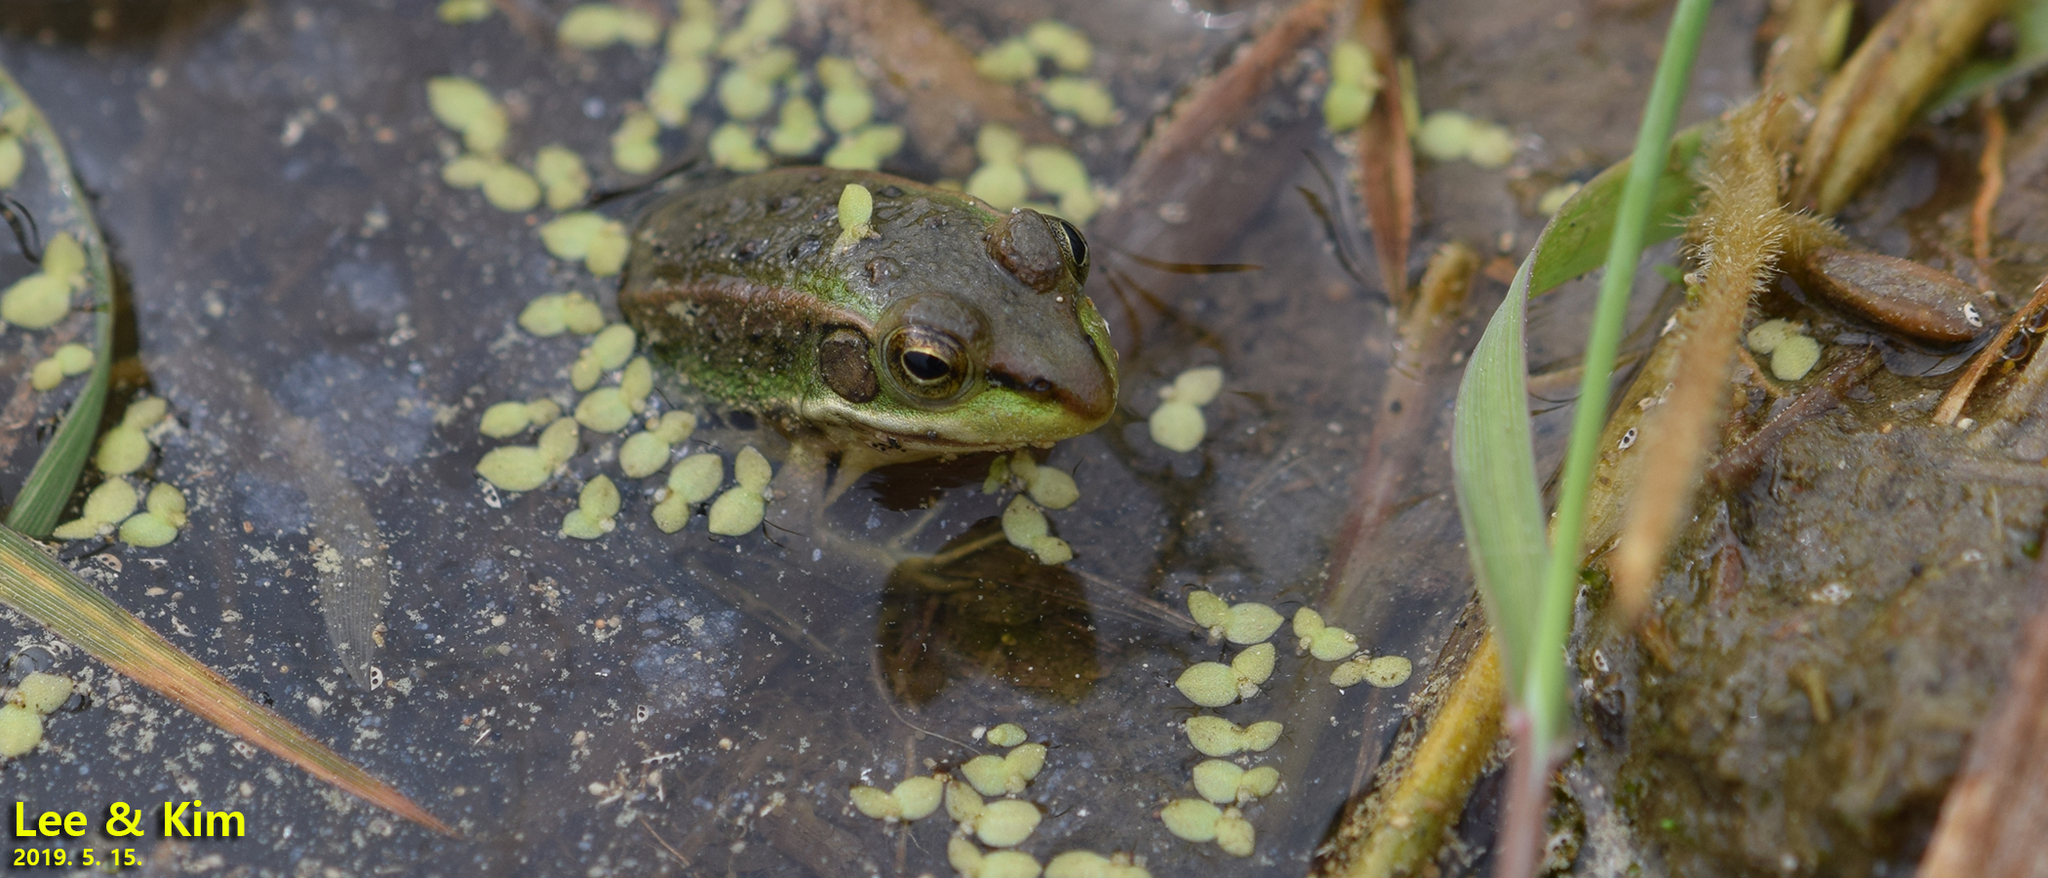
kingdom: Animalia
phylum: Chordata
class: Amphibia
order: Anura
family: Ranidae
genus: Pelophylax
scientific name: Pelophylax chosenicus
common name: Gold-spotted pond frog
